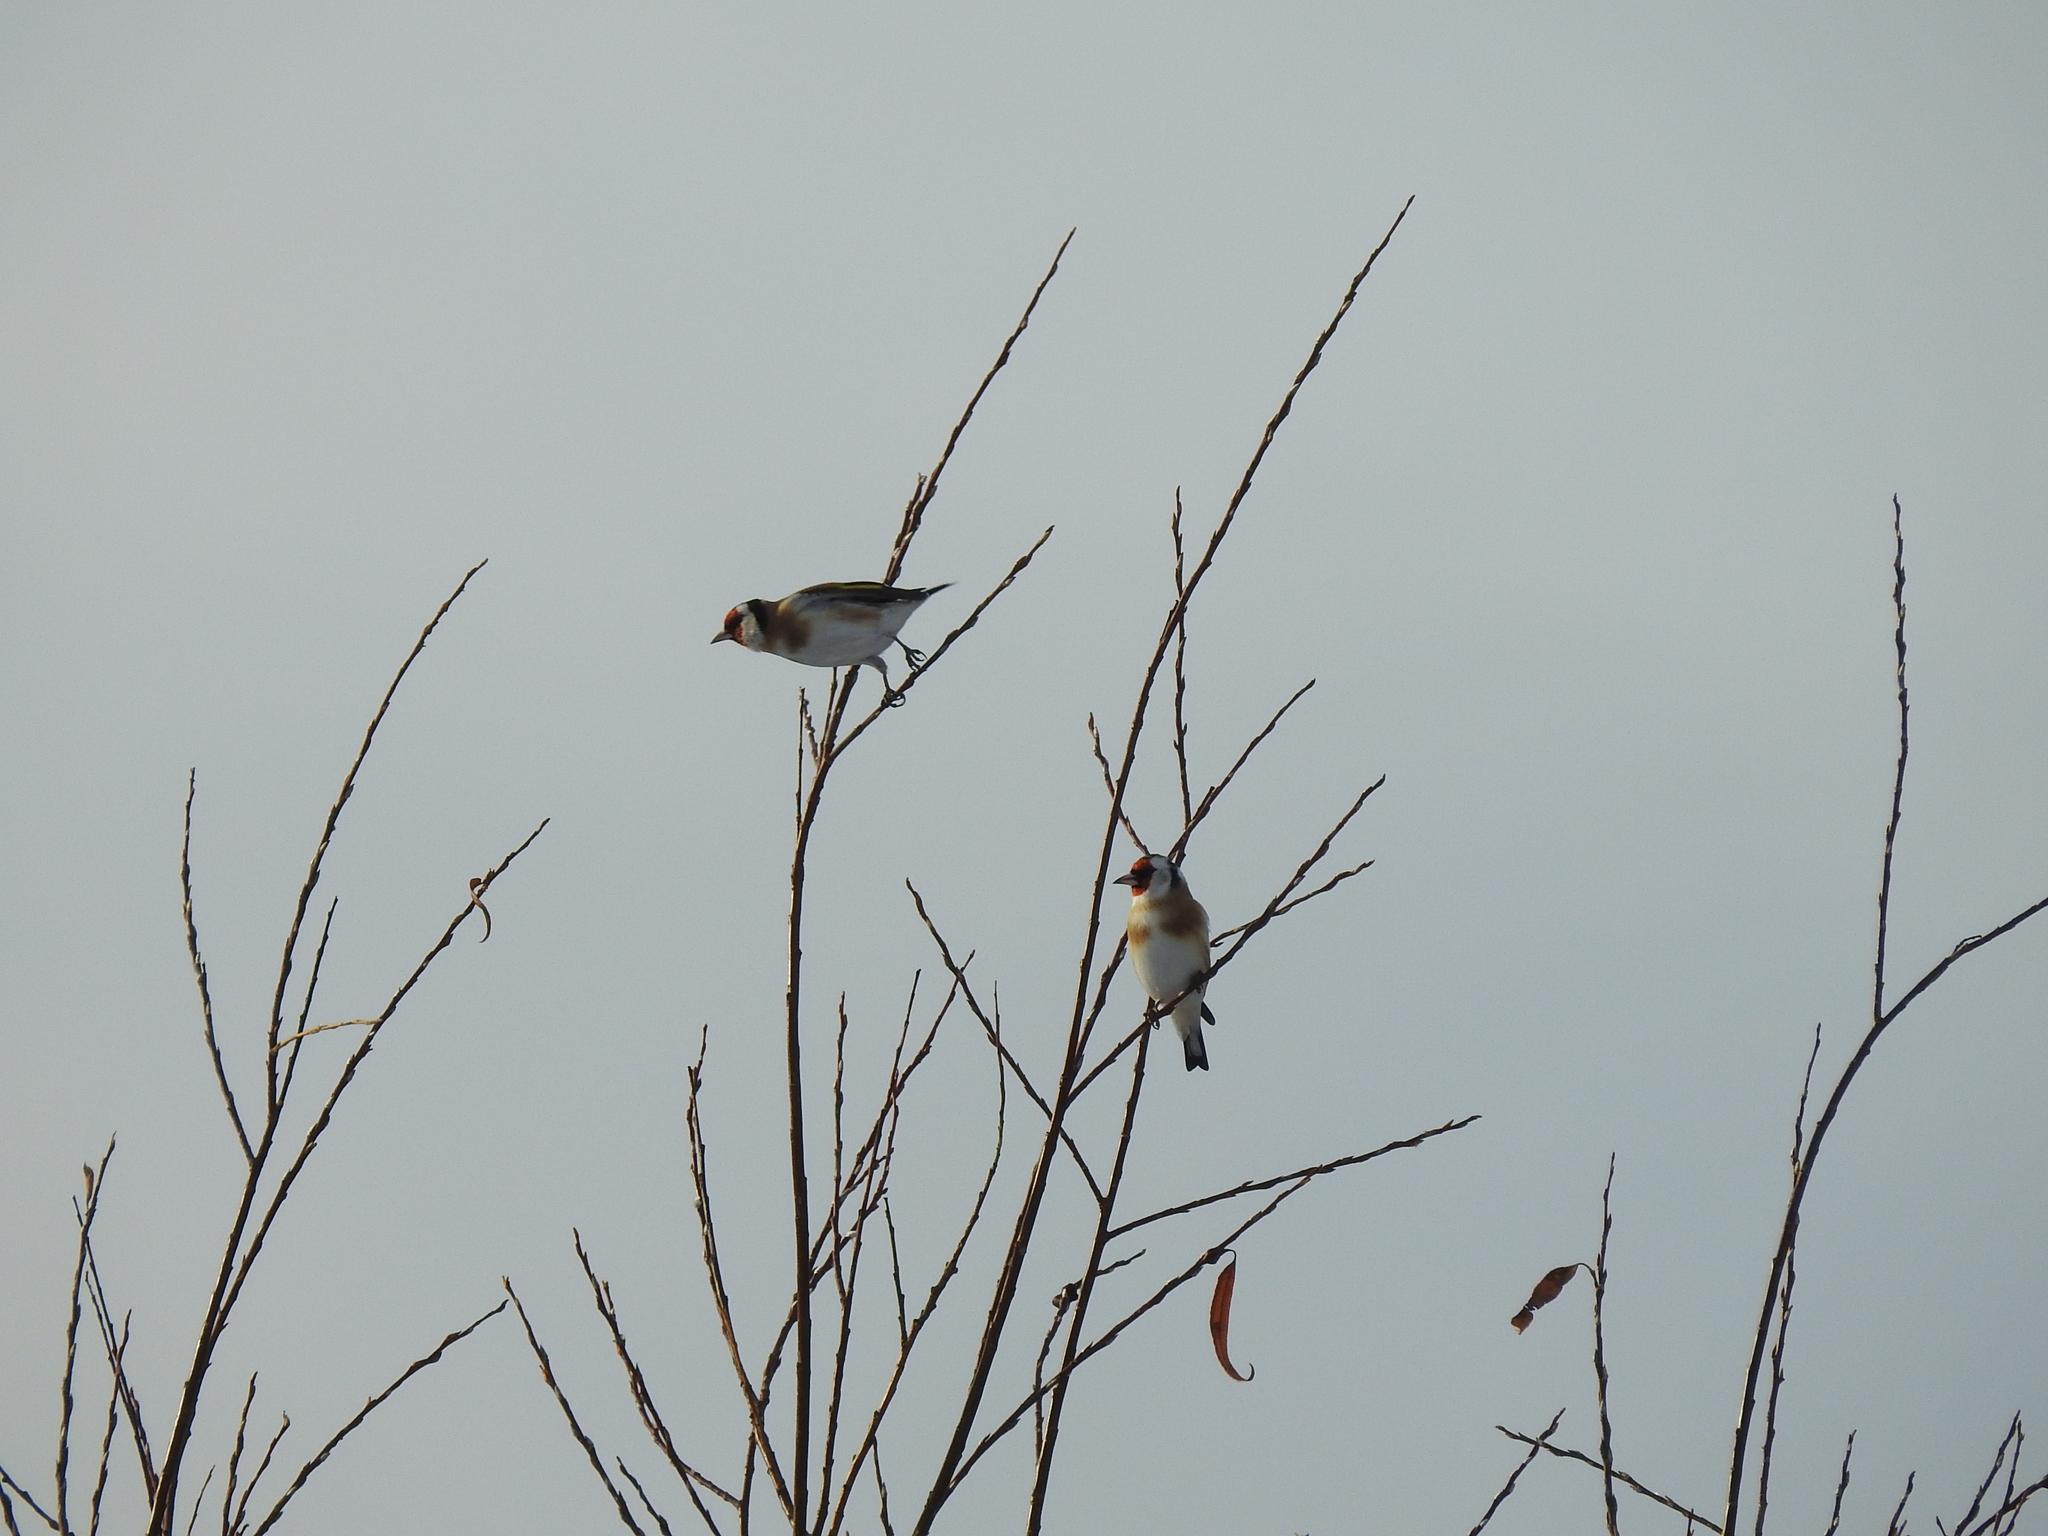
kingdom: Animalia
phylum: Chordata
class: Aves
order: Passeriformes
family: Fringillidae
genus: Carduelis
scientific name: Carduelis carduelis
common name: European goldfinch
